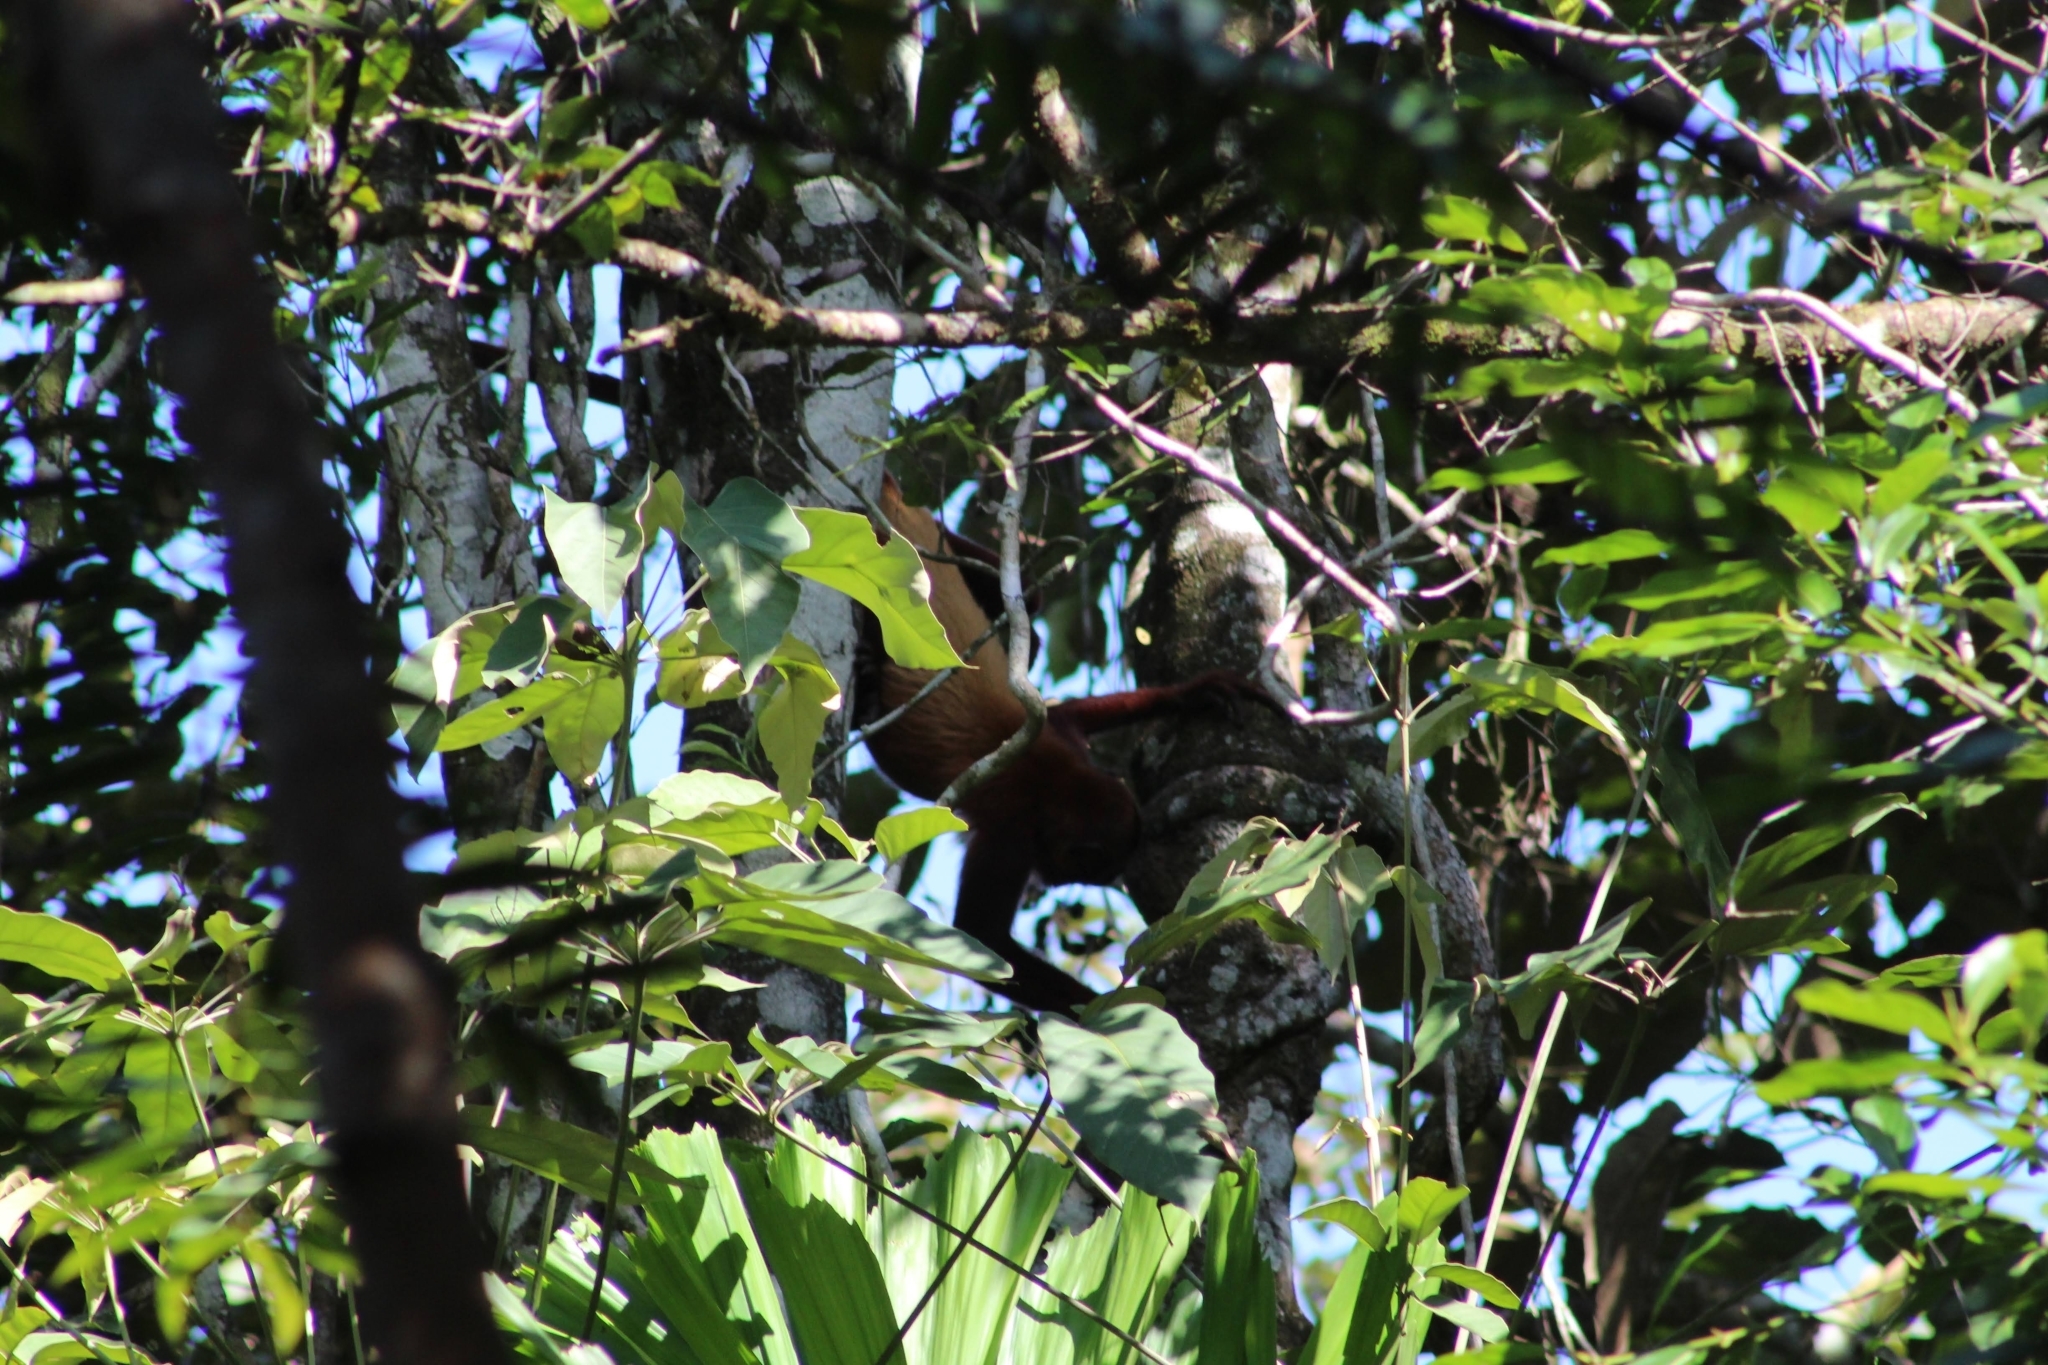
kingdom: Animalia
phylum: Chordata
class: Mammalia
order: Primates
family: Atelidae
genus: Alouatta
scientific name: Alouatta seniculus
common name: Venezuelan red howler
